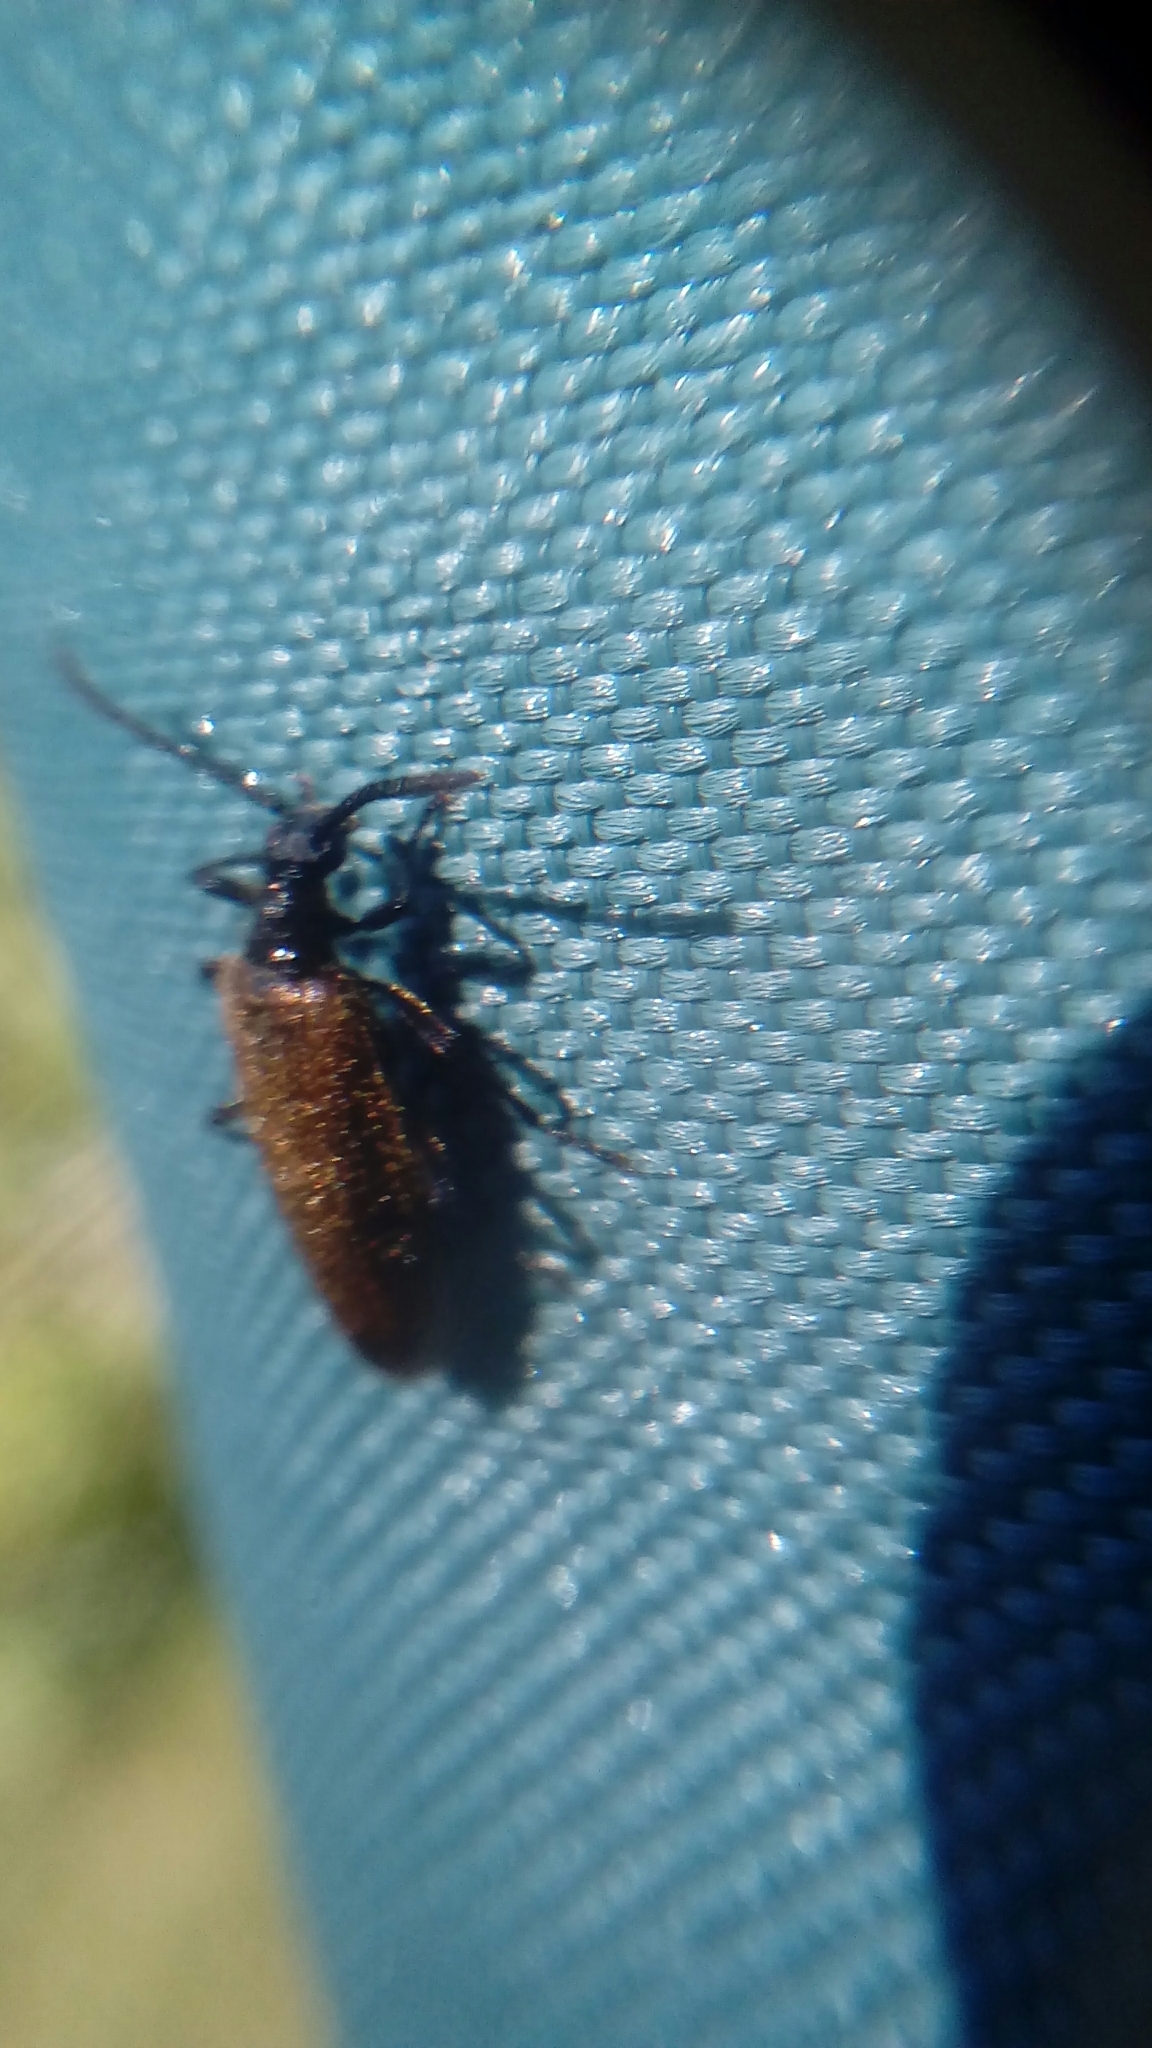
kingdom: Animalia
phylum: Arthropoda
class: Insecta
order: Coleoptera
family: Tenebrionidae
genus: Lagria
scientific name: Lagria hirta
